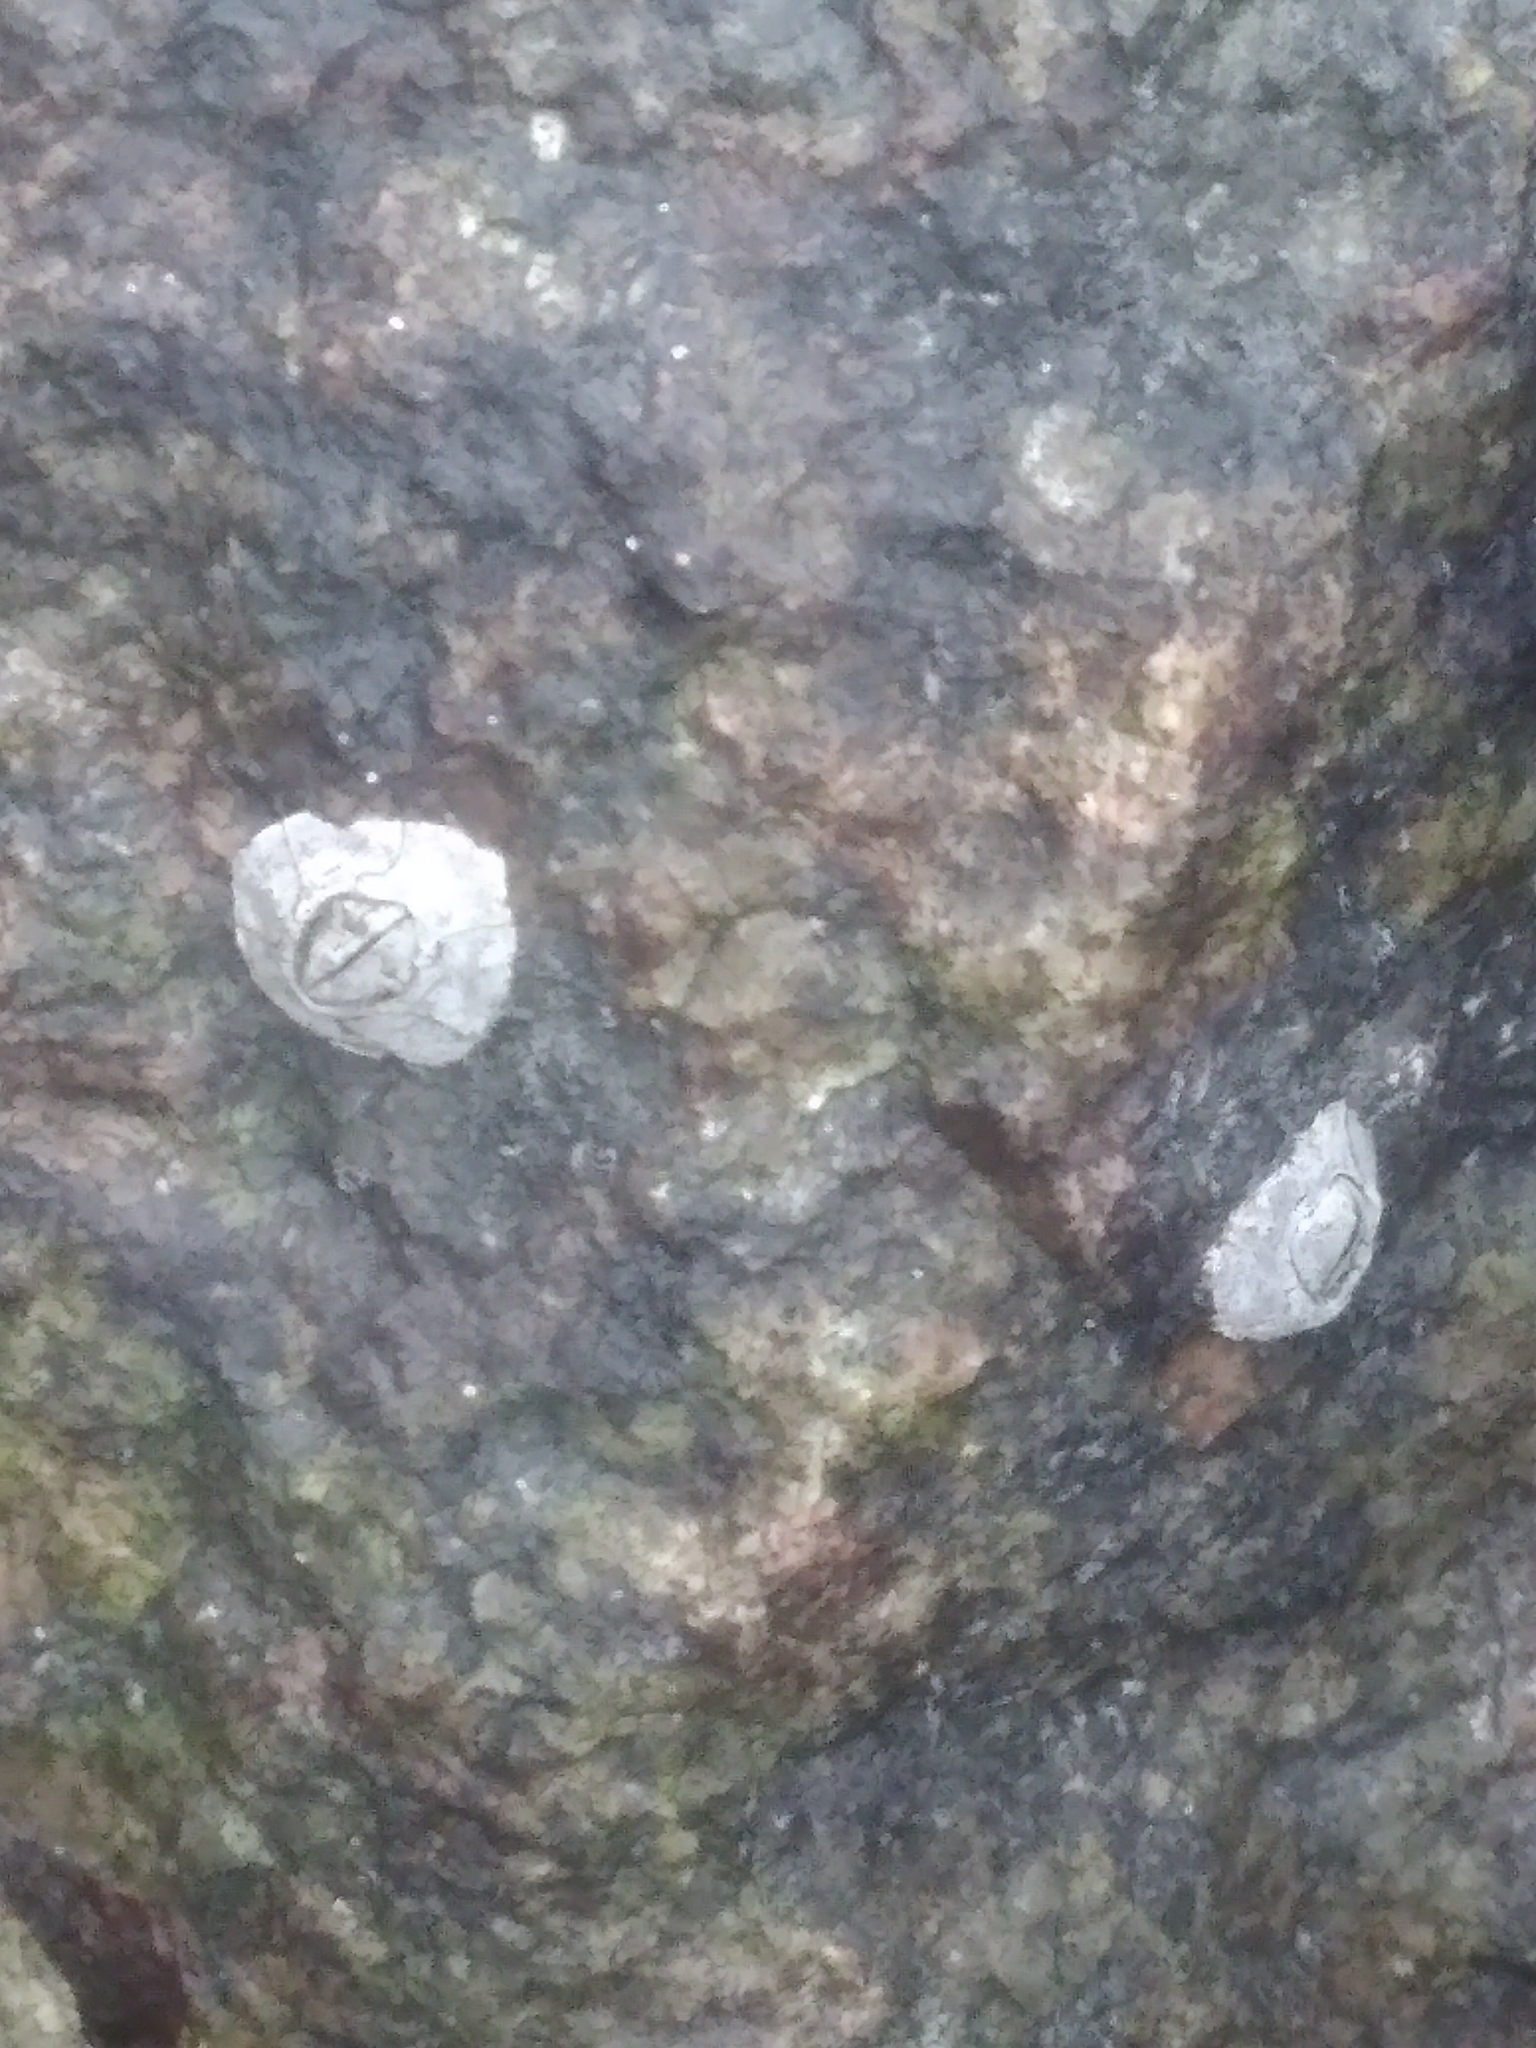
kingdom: Animalia
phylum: Arthropoda
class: Maxillopoda
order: Sessilia
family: Chthamalidae
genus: Chthamalus
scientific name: Chthamalus fragilis
